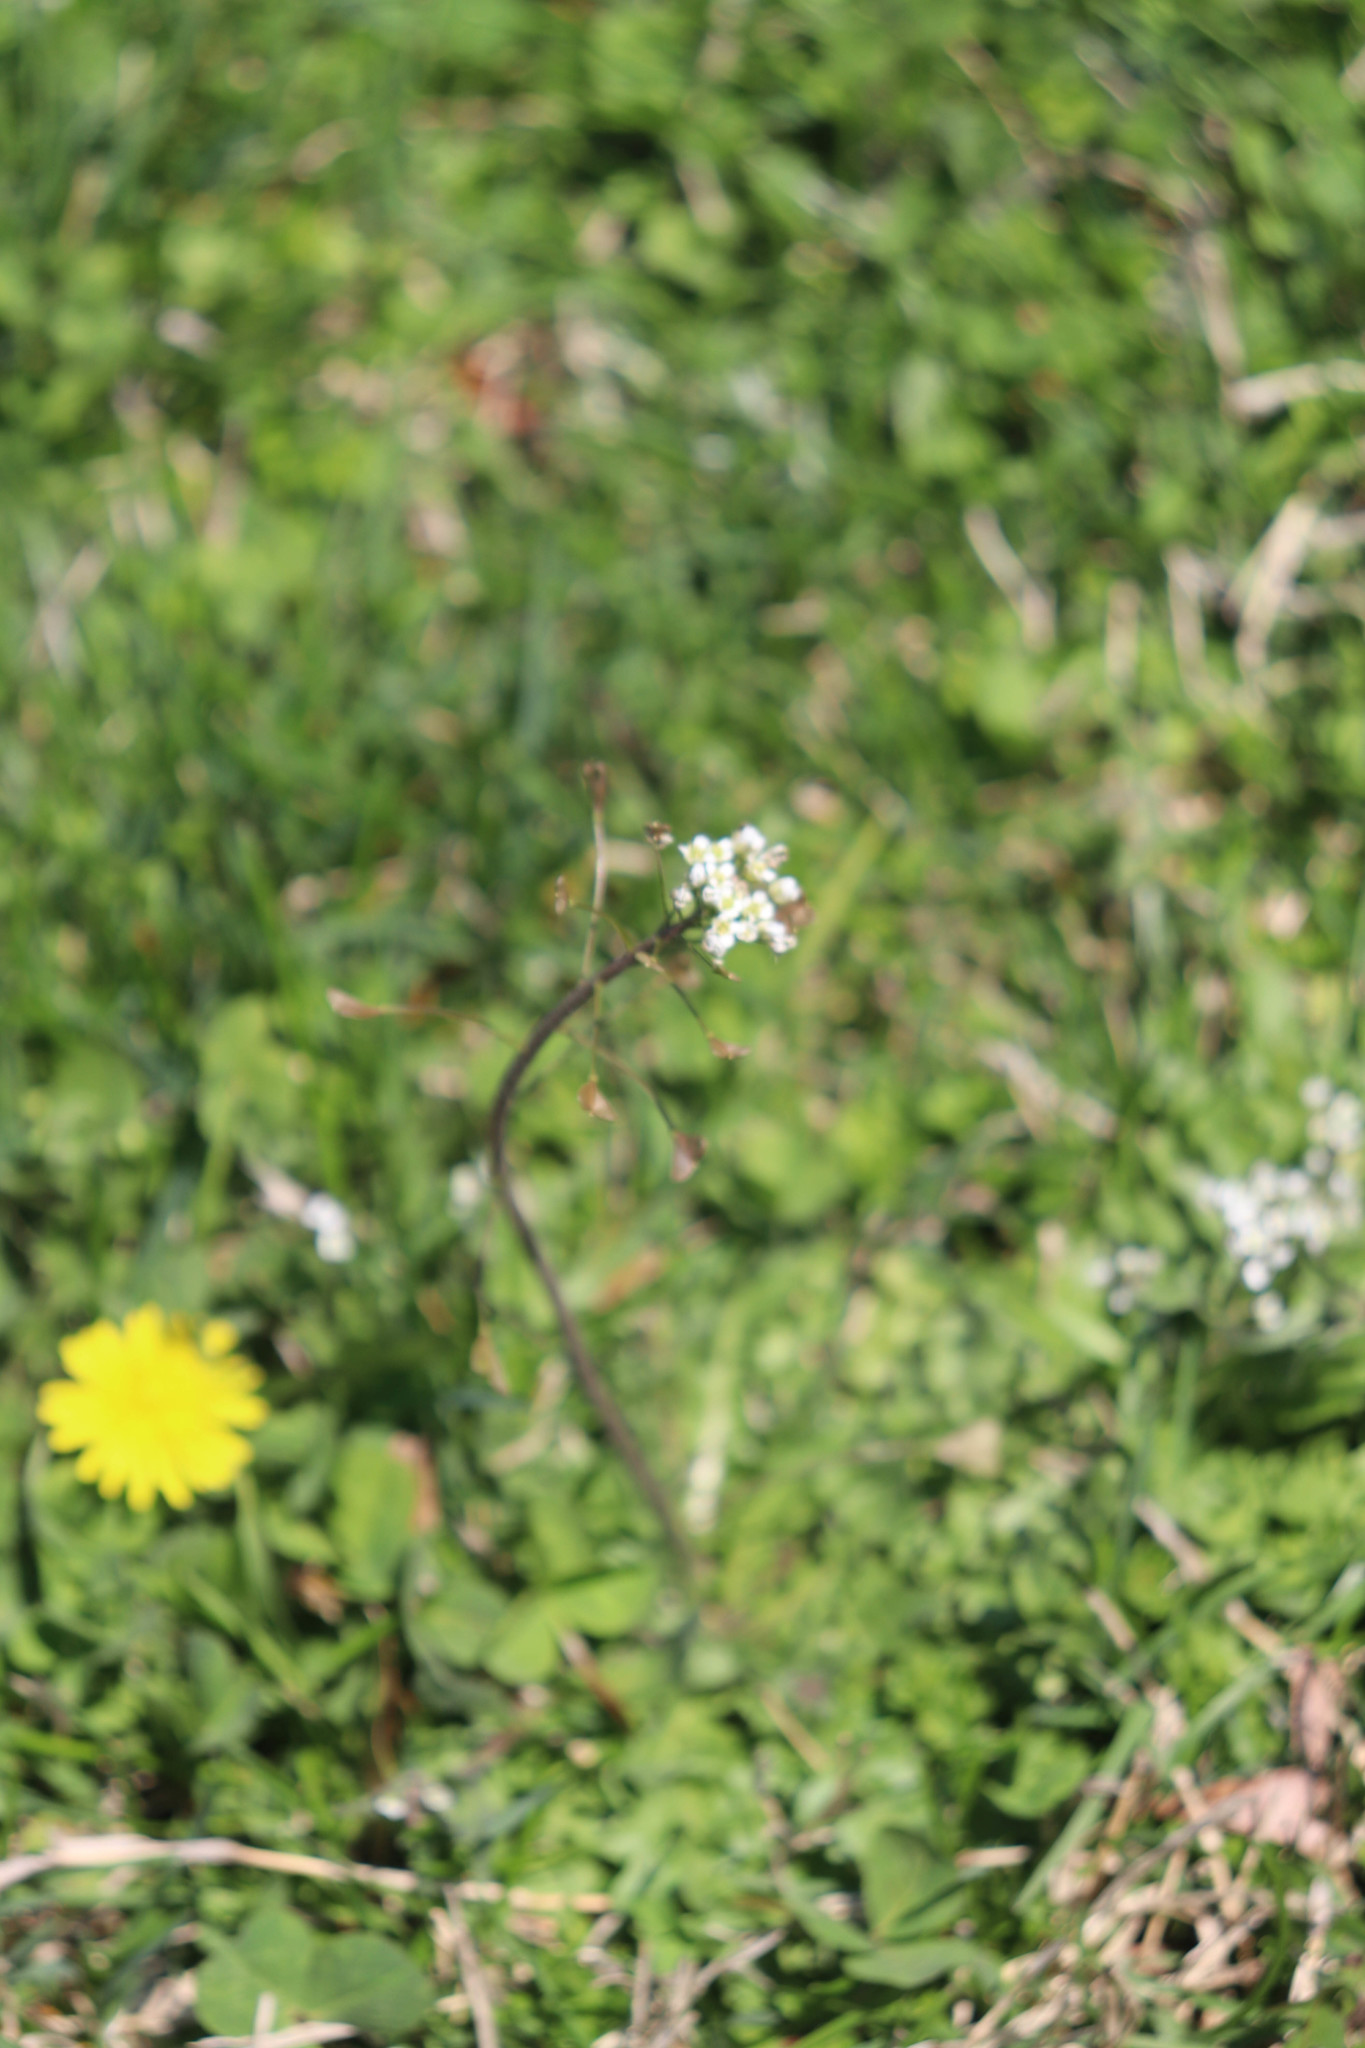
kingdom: Plantae
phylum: Tracheophyta
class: Magnoliopsida
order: Brassicales
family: Brassicaceae
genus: Capsella
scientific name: Capsella bursa-pastoris
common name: Shepherd's purse
